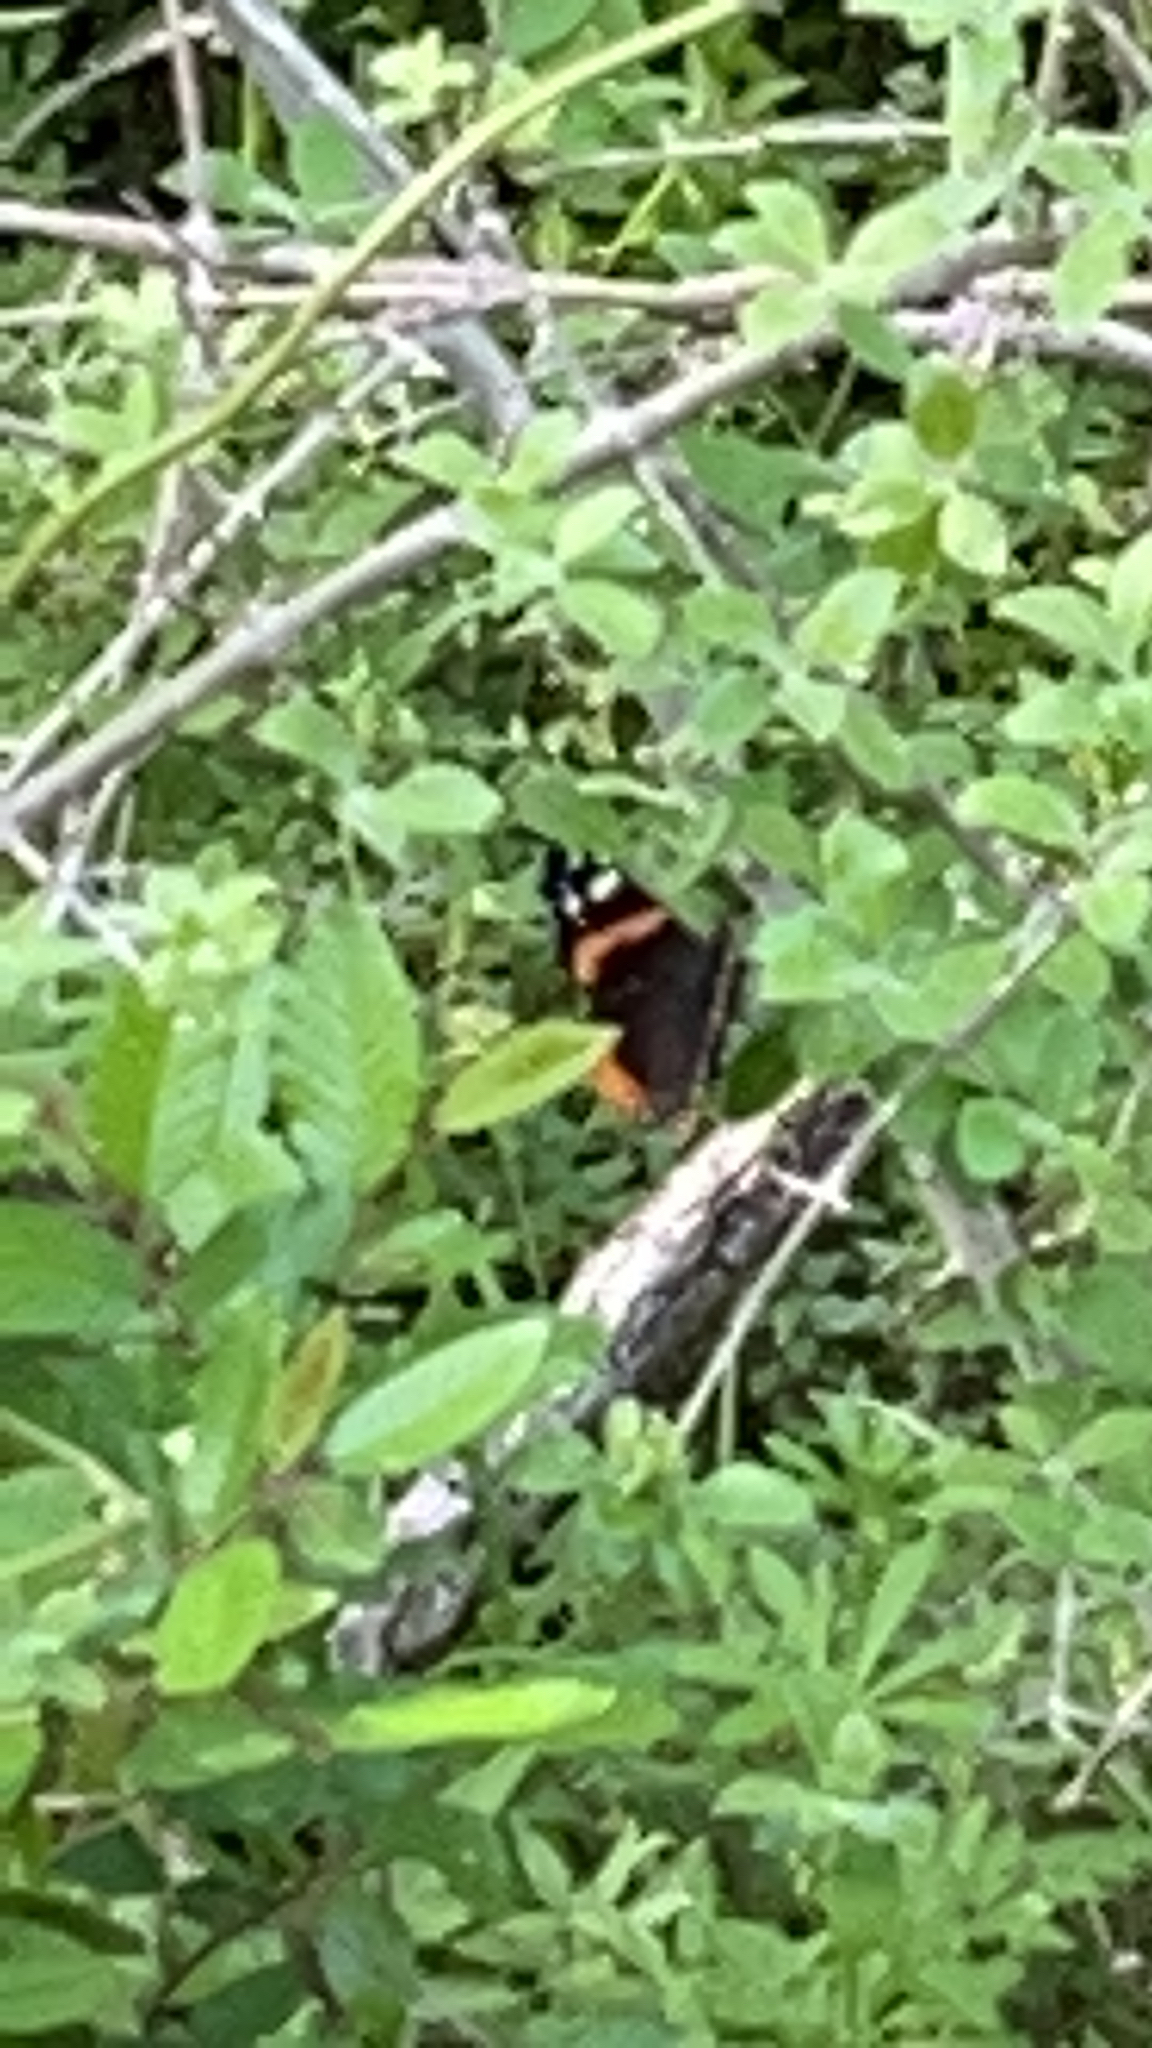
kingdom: Animalia
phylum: Arthropoda
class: Insecta
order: Lepidoptera
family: Nymphalidae
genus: Vanessa
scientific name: Vanessa atalanta
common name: Red admiral
